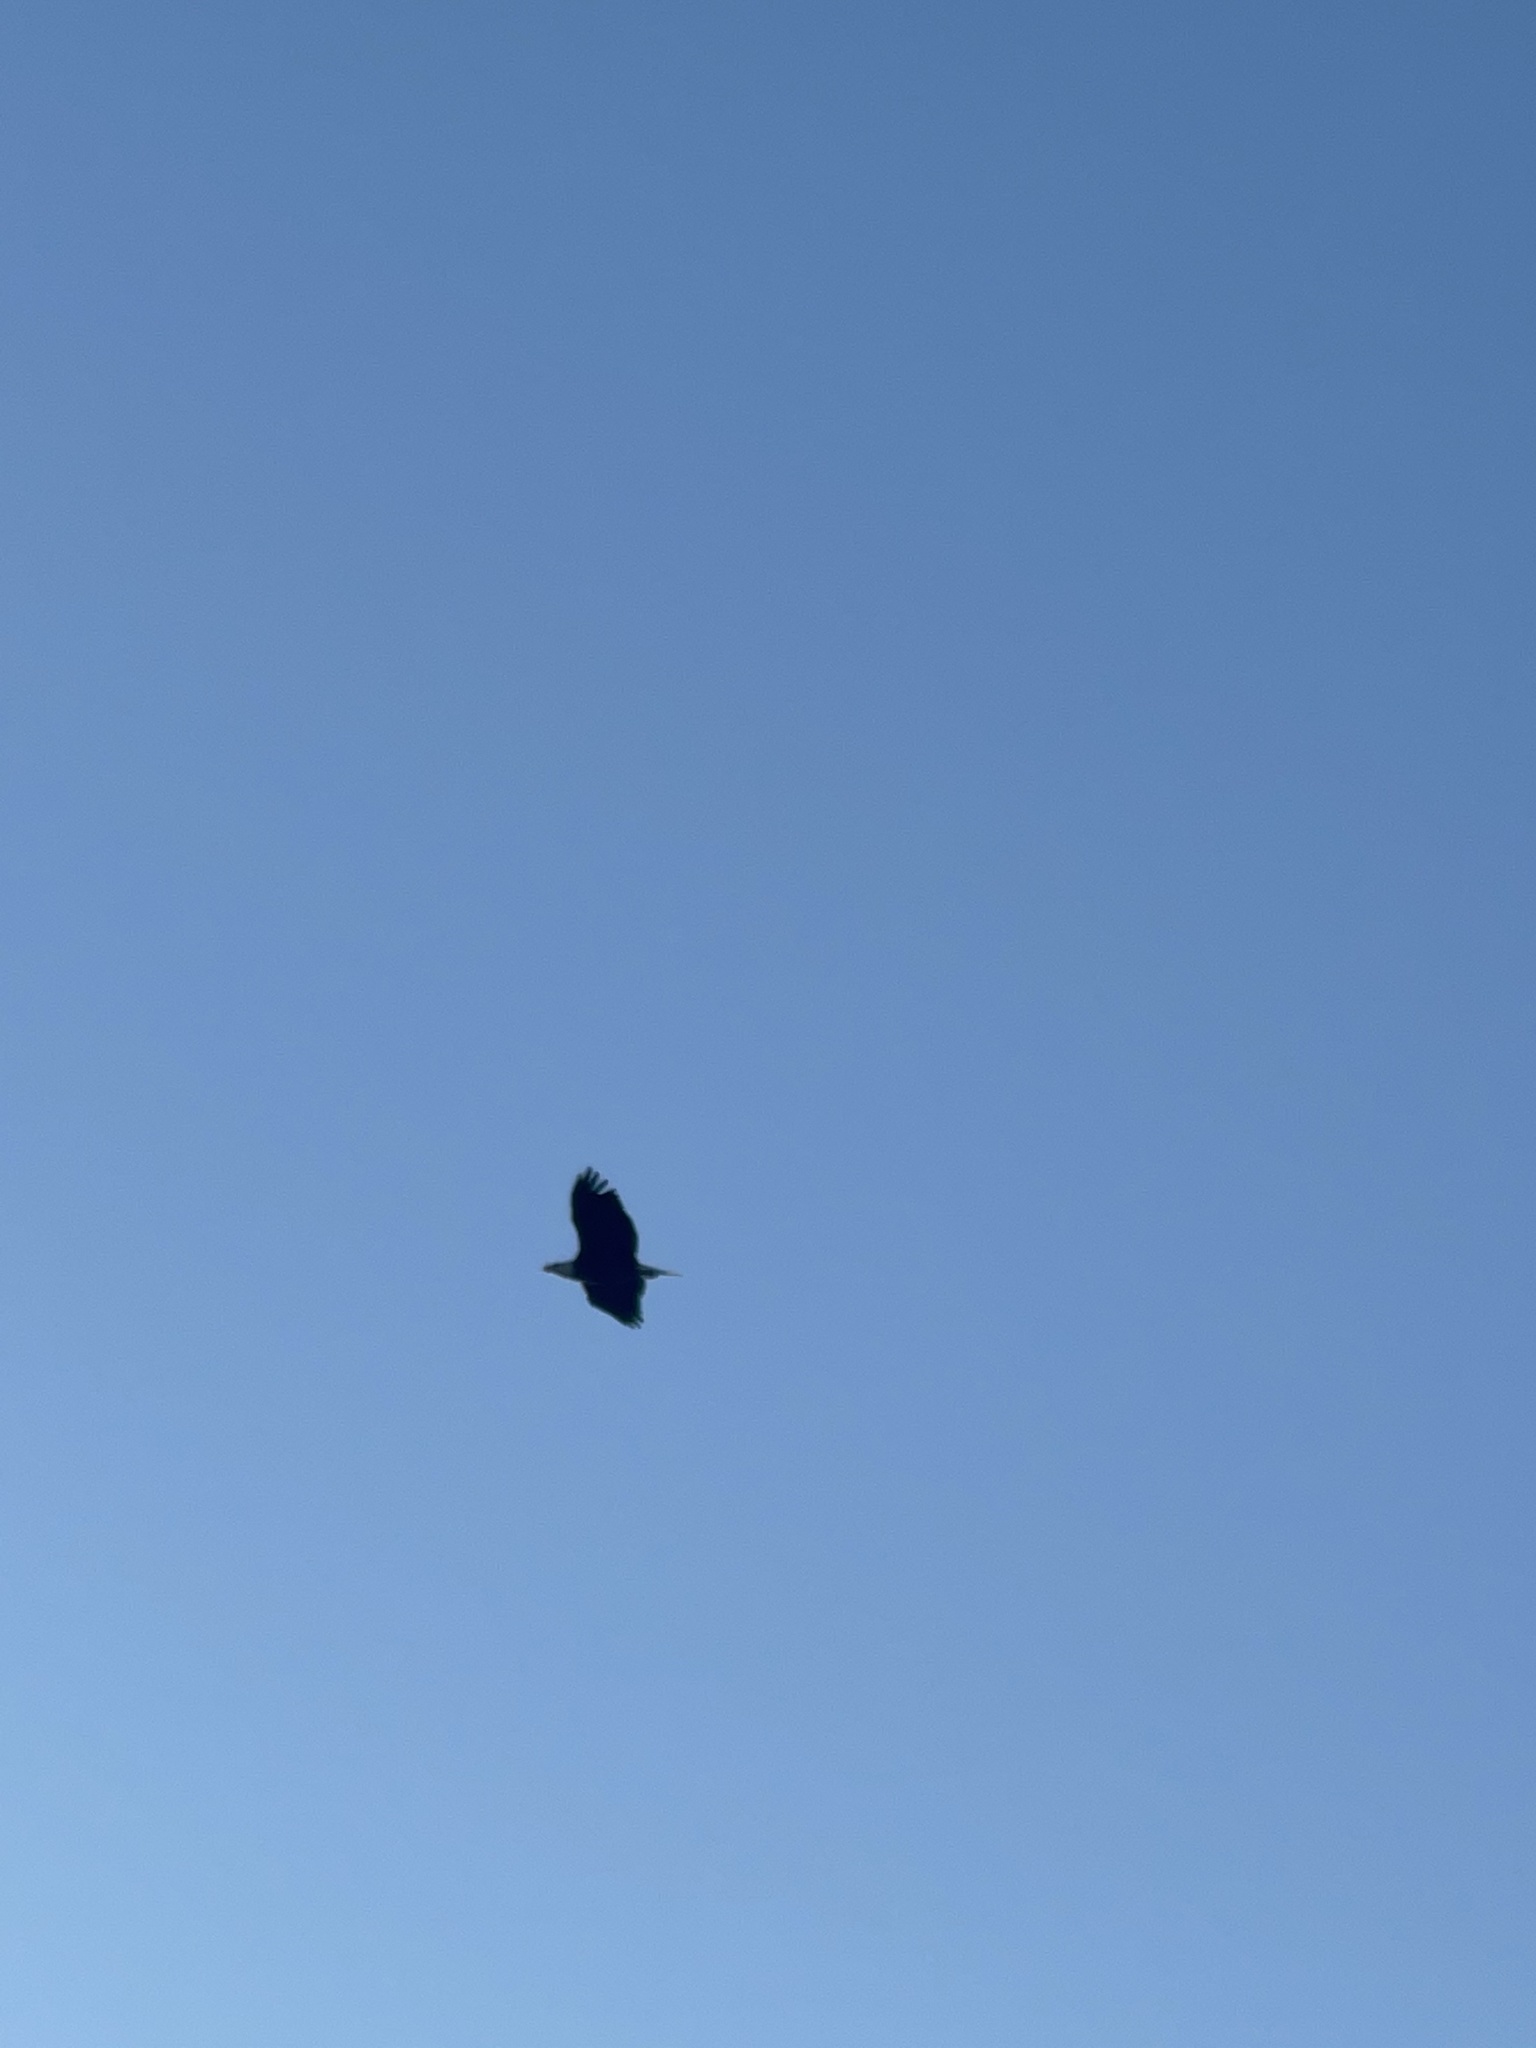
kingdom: Animalia
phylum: Chordata
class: Aves
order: Accipitriformes
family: Accipitridae
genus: Haliaeetus
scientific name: Haliaeetus leucocephalus
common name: Bald eagle
